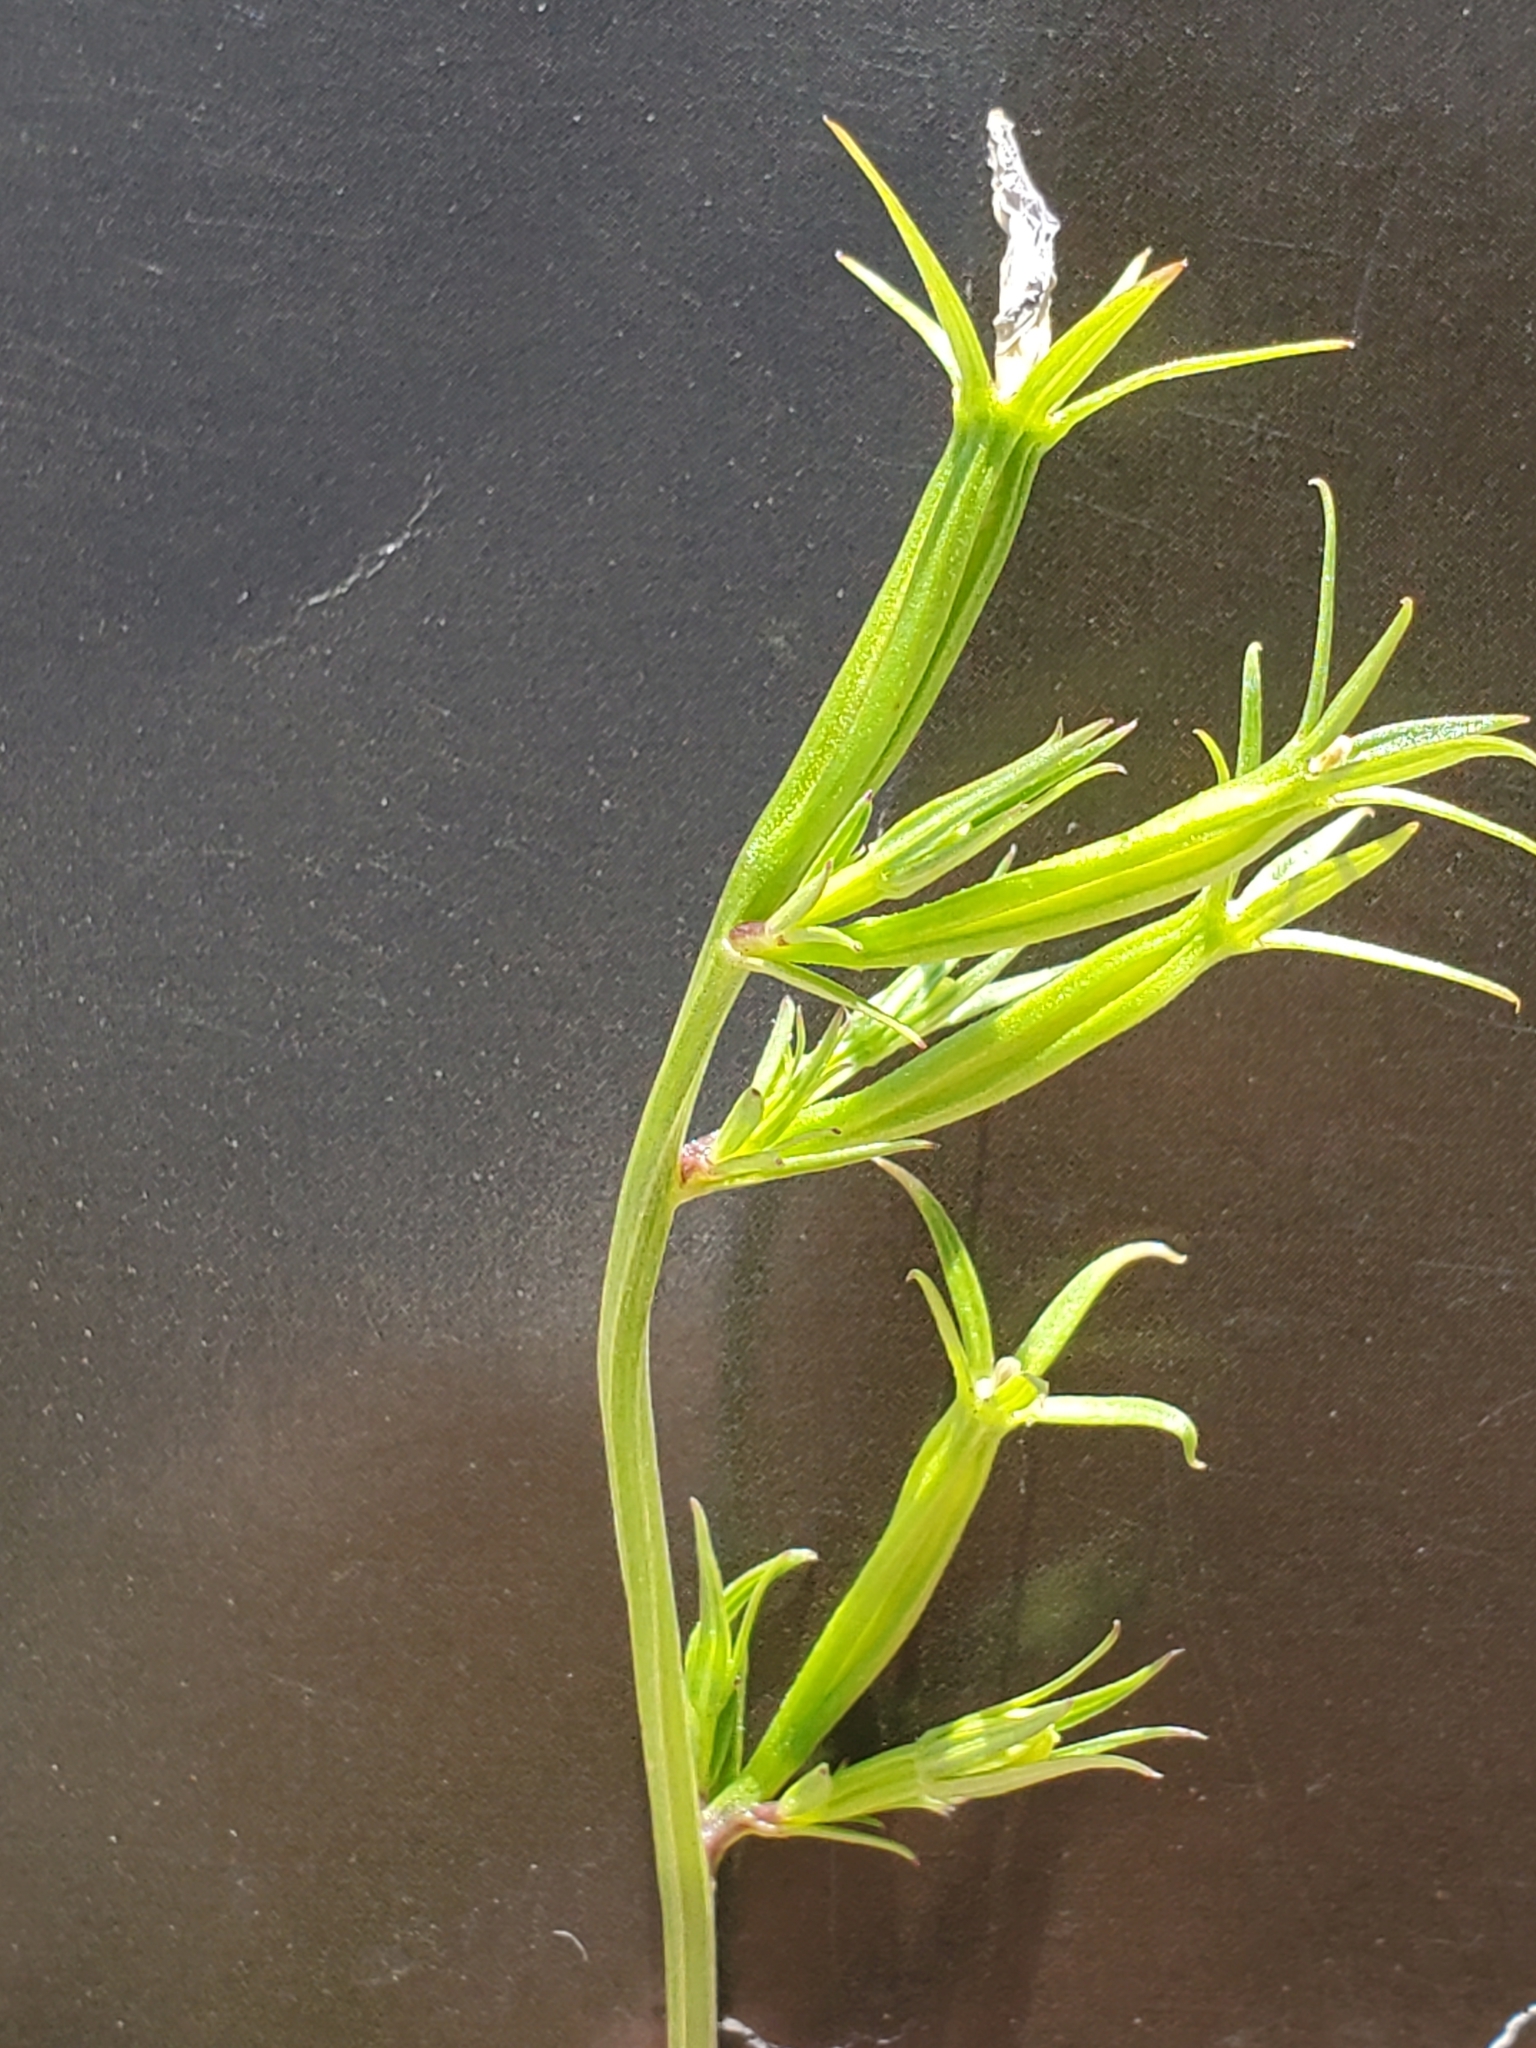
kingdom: Plantae
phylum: Tracheophyta
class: Magnoliopsida
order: Asterales
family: Campanulaceae
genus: Triodanis
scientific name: Triodanis coloradoensis
